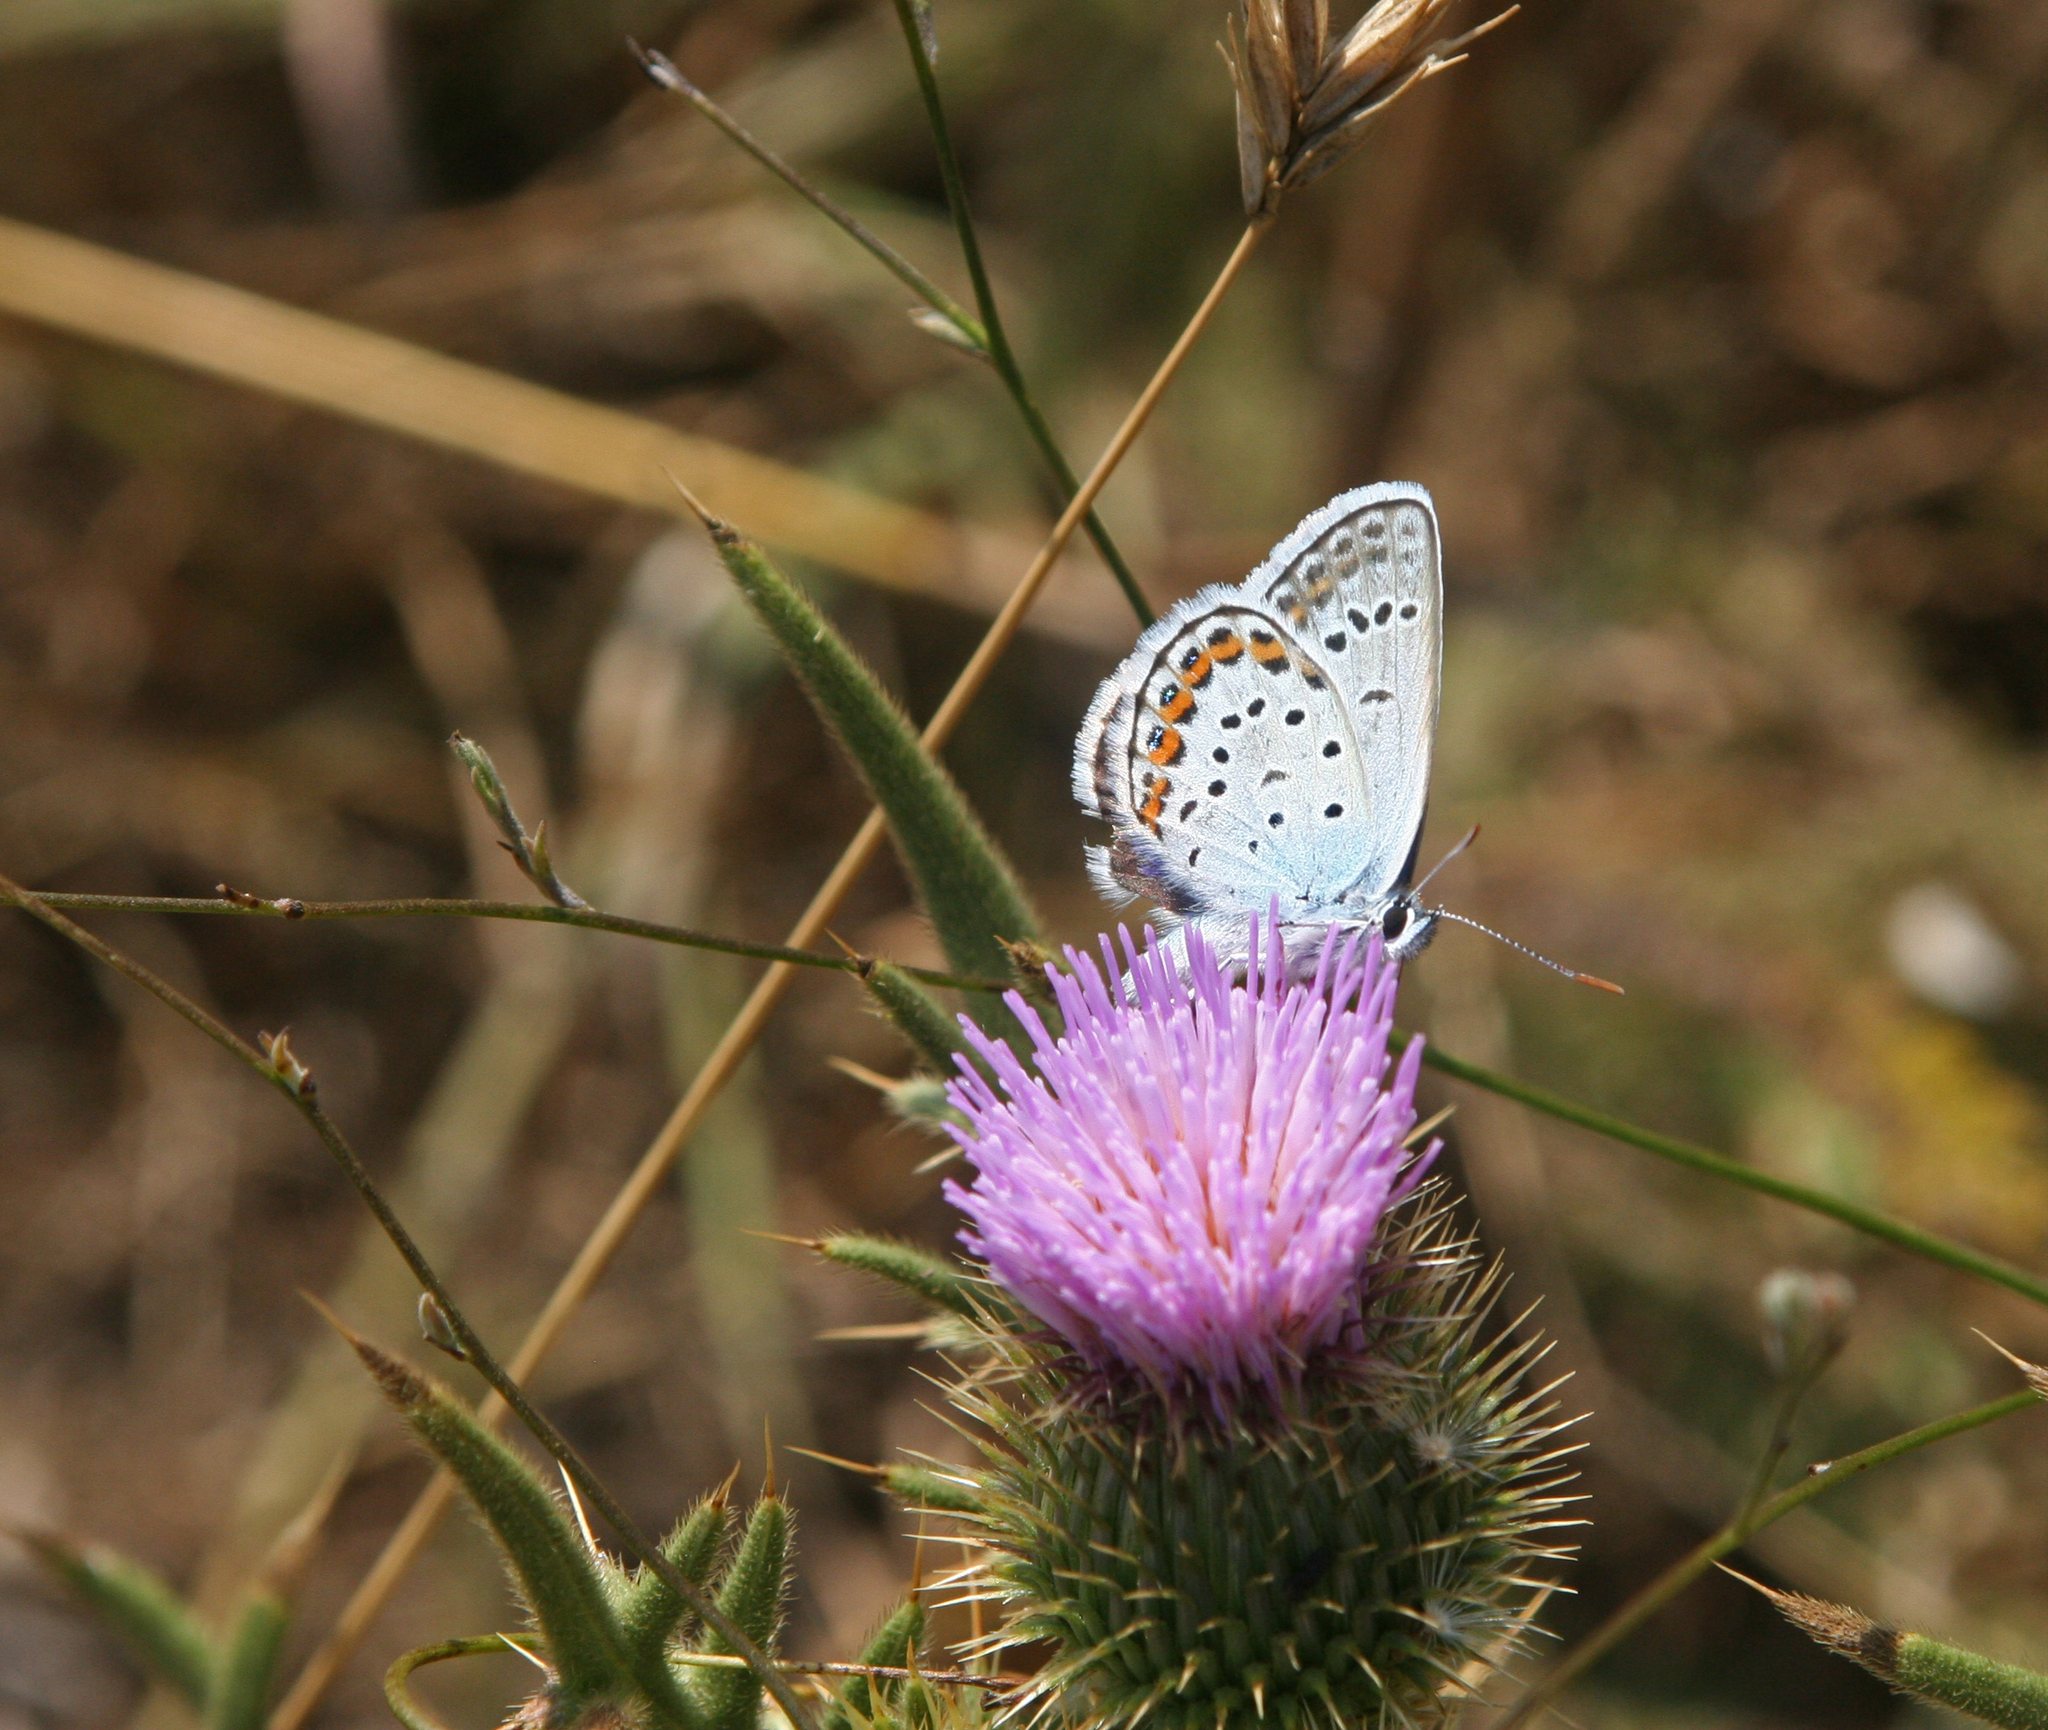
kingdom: Animalia
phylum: Arthropoda
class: Insecta
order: Lepidoptera
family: Lycaenidae
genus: Plebejus
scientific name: Plebejus argus
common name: Silver-studded blue
